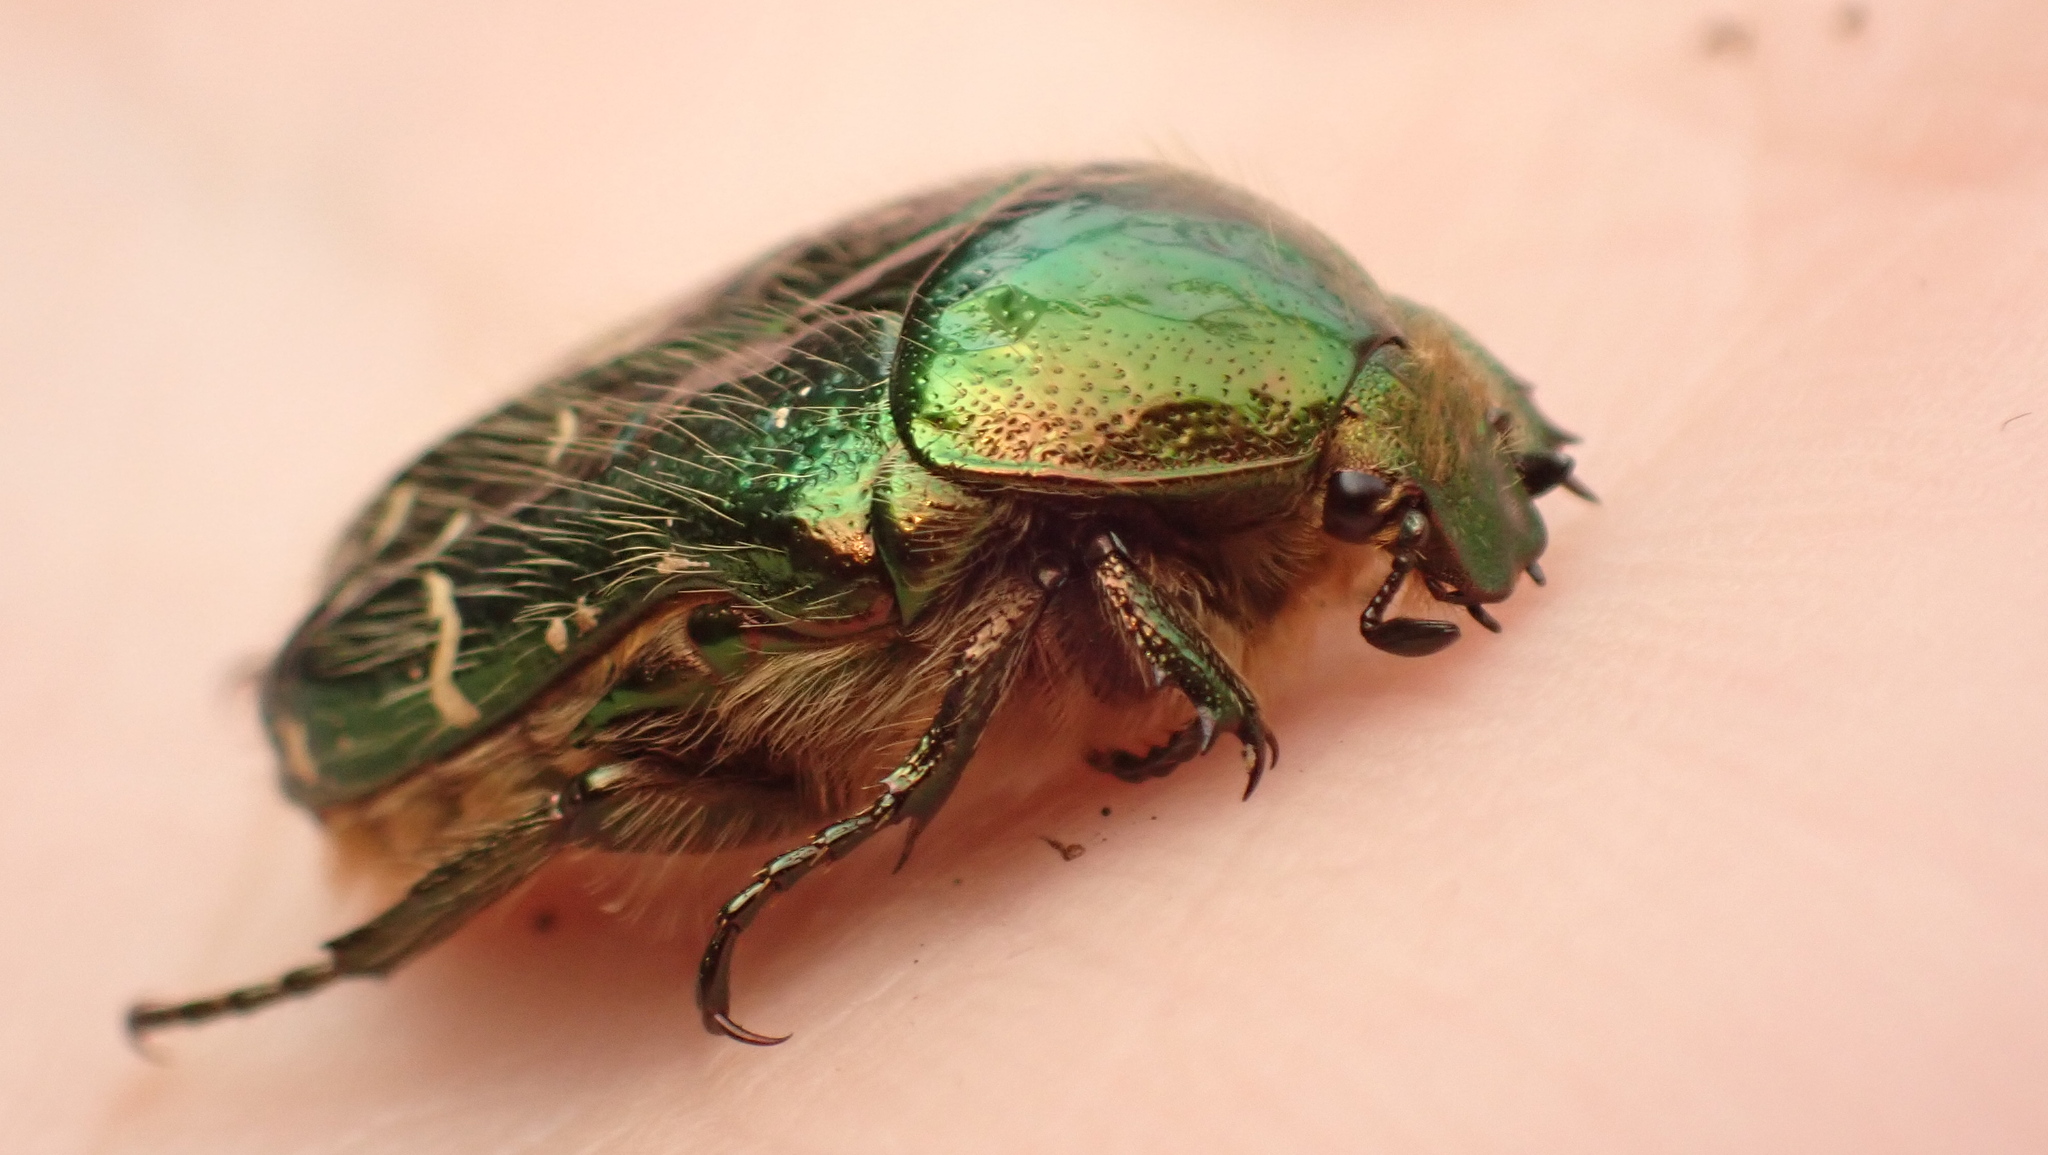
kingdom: Animalia
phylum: Arthropoda
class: Insecta
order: Coleoptera
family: Scarabaeidae
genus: Cetonia
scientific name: Cetonia aurata
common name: Rose chafer
